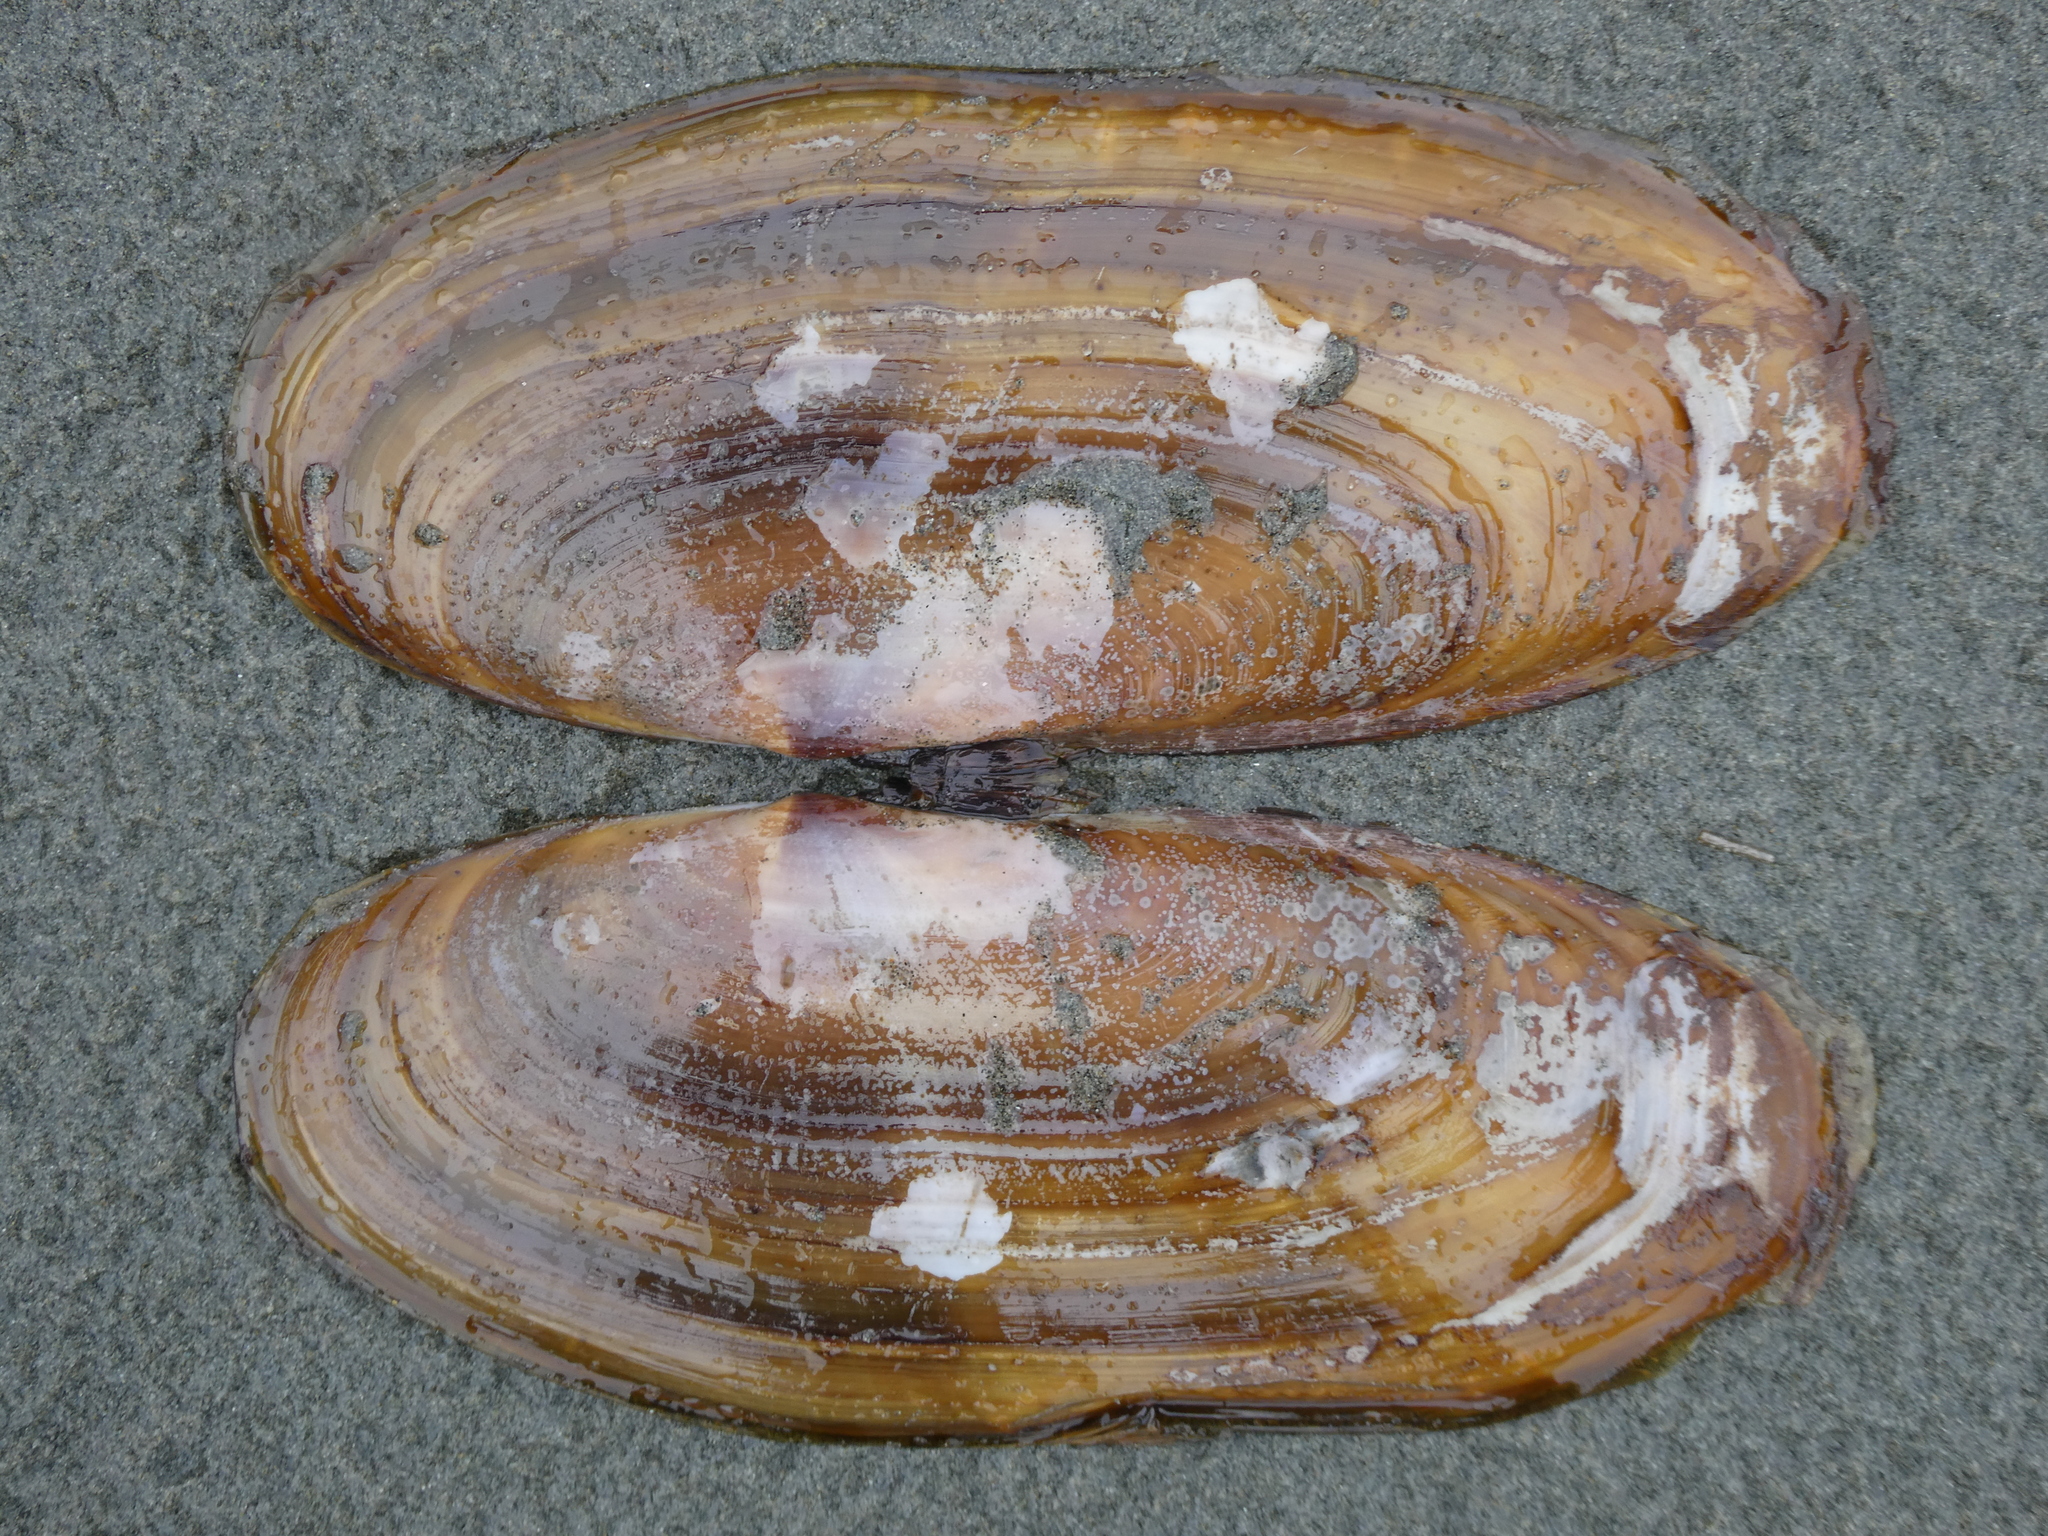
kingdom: Animalia
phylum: Mollusca
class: Bivalvia
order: Adapedonta
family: Pharidae
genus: Siliqua
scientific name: Siliqua patula
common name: Pacific razor clam
